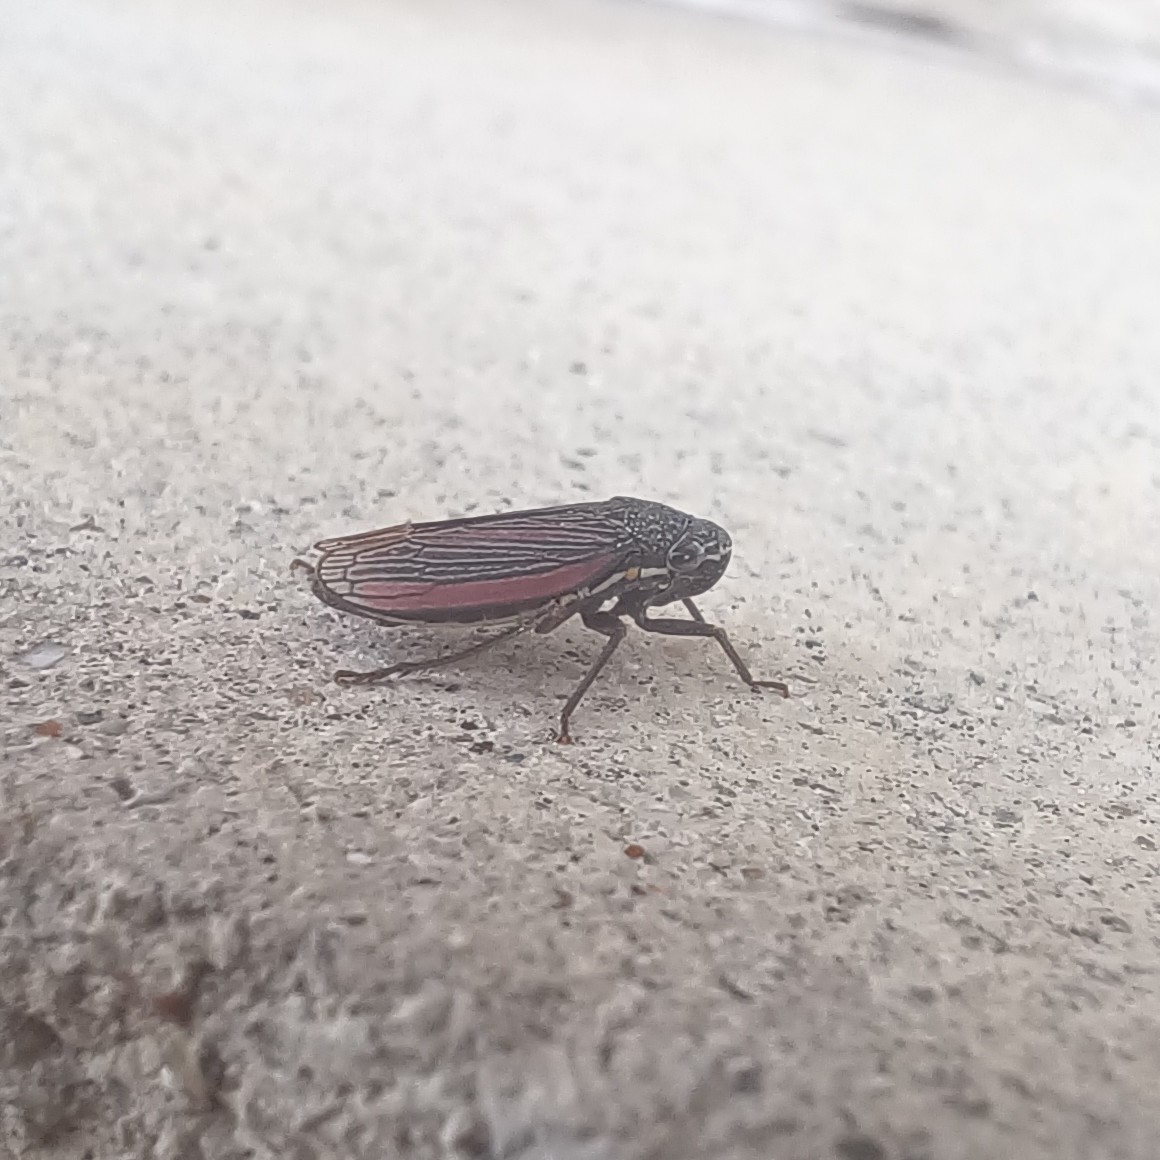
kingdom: Animalia
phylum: Arthropoda
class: Insecta
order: Hemiptera
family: Cicadellidae
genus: Cuerna
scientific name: Cuerna striata
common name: Striped leafhopper
